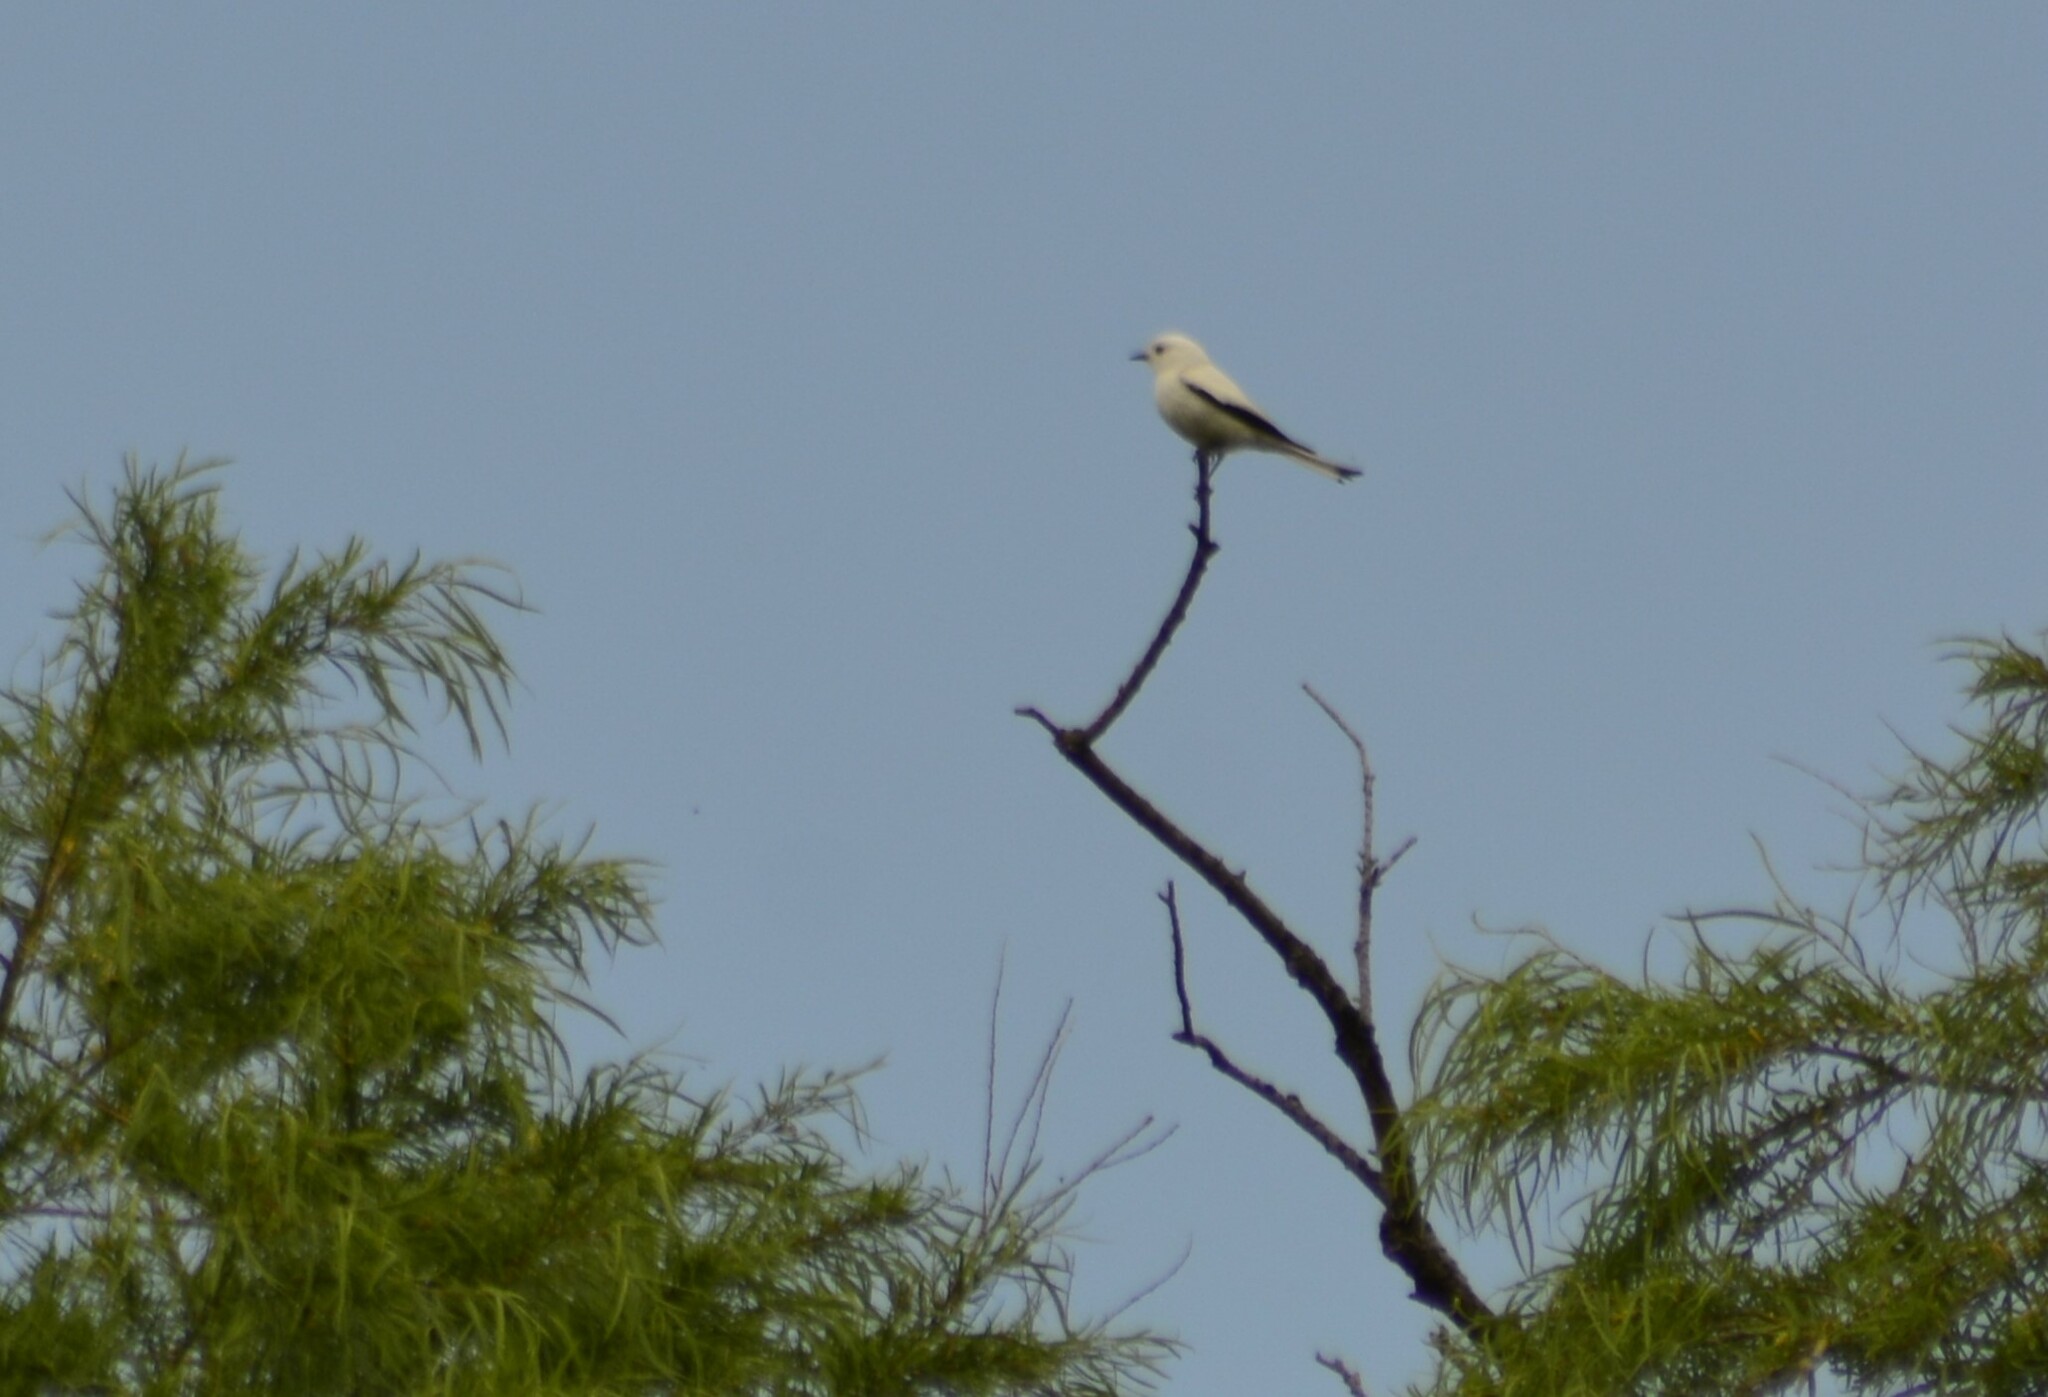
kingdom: Animalia
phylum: Chordata
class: Aves
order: Passeriformes
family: Tyrannidae
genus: Xolmis
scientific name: Xolmis irupero
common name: White monjita
